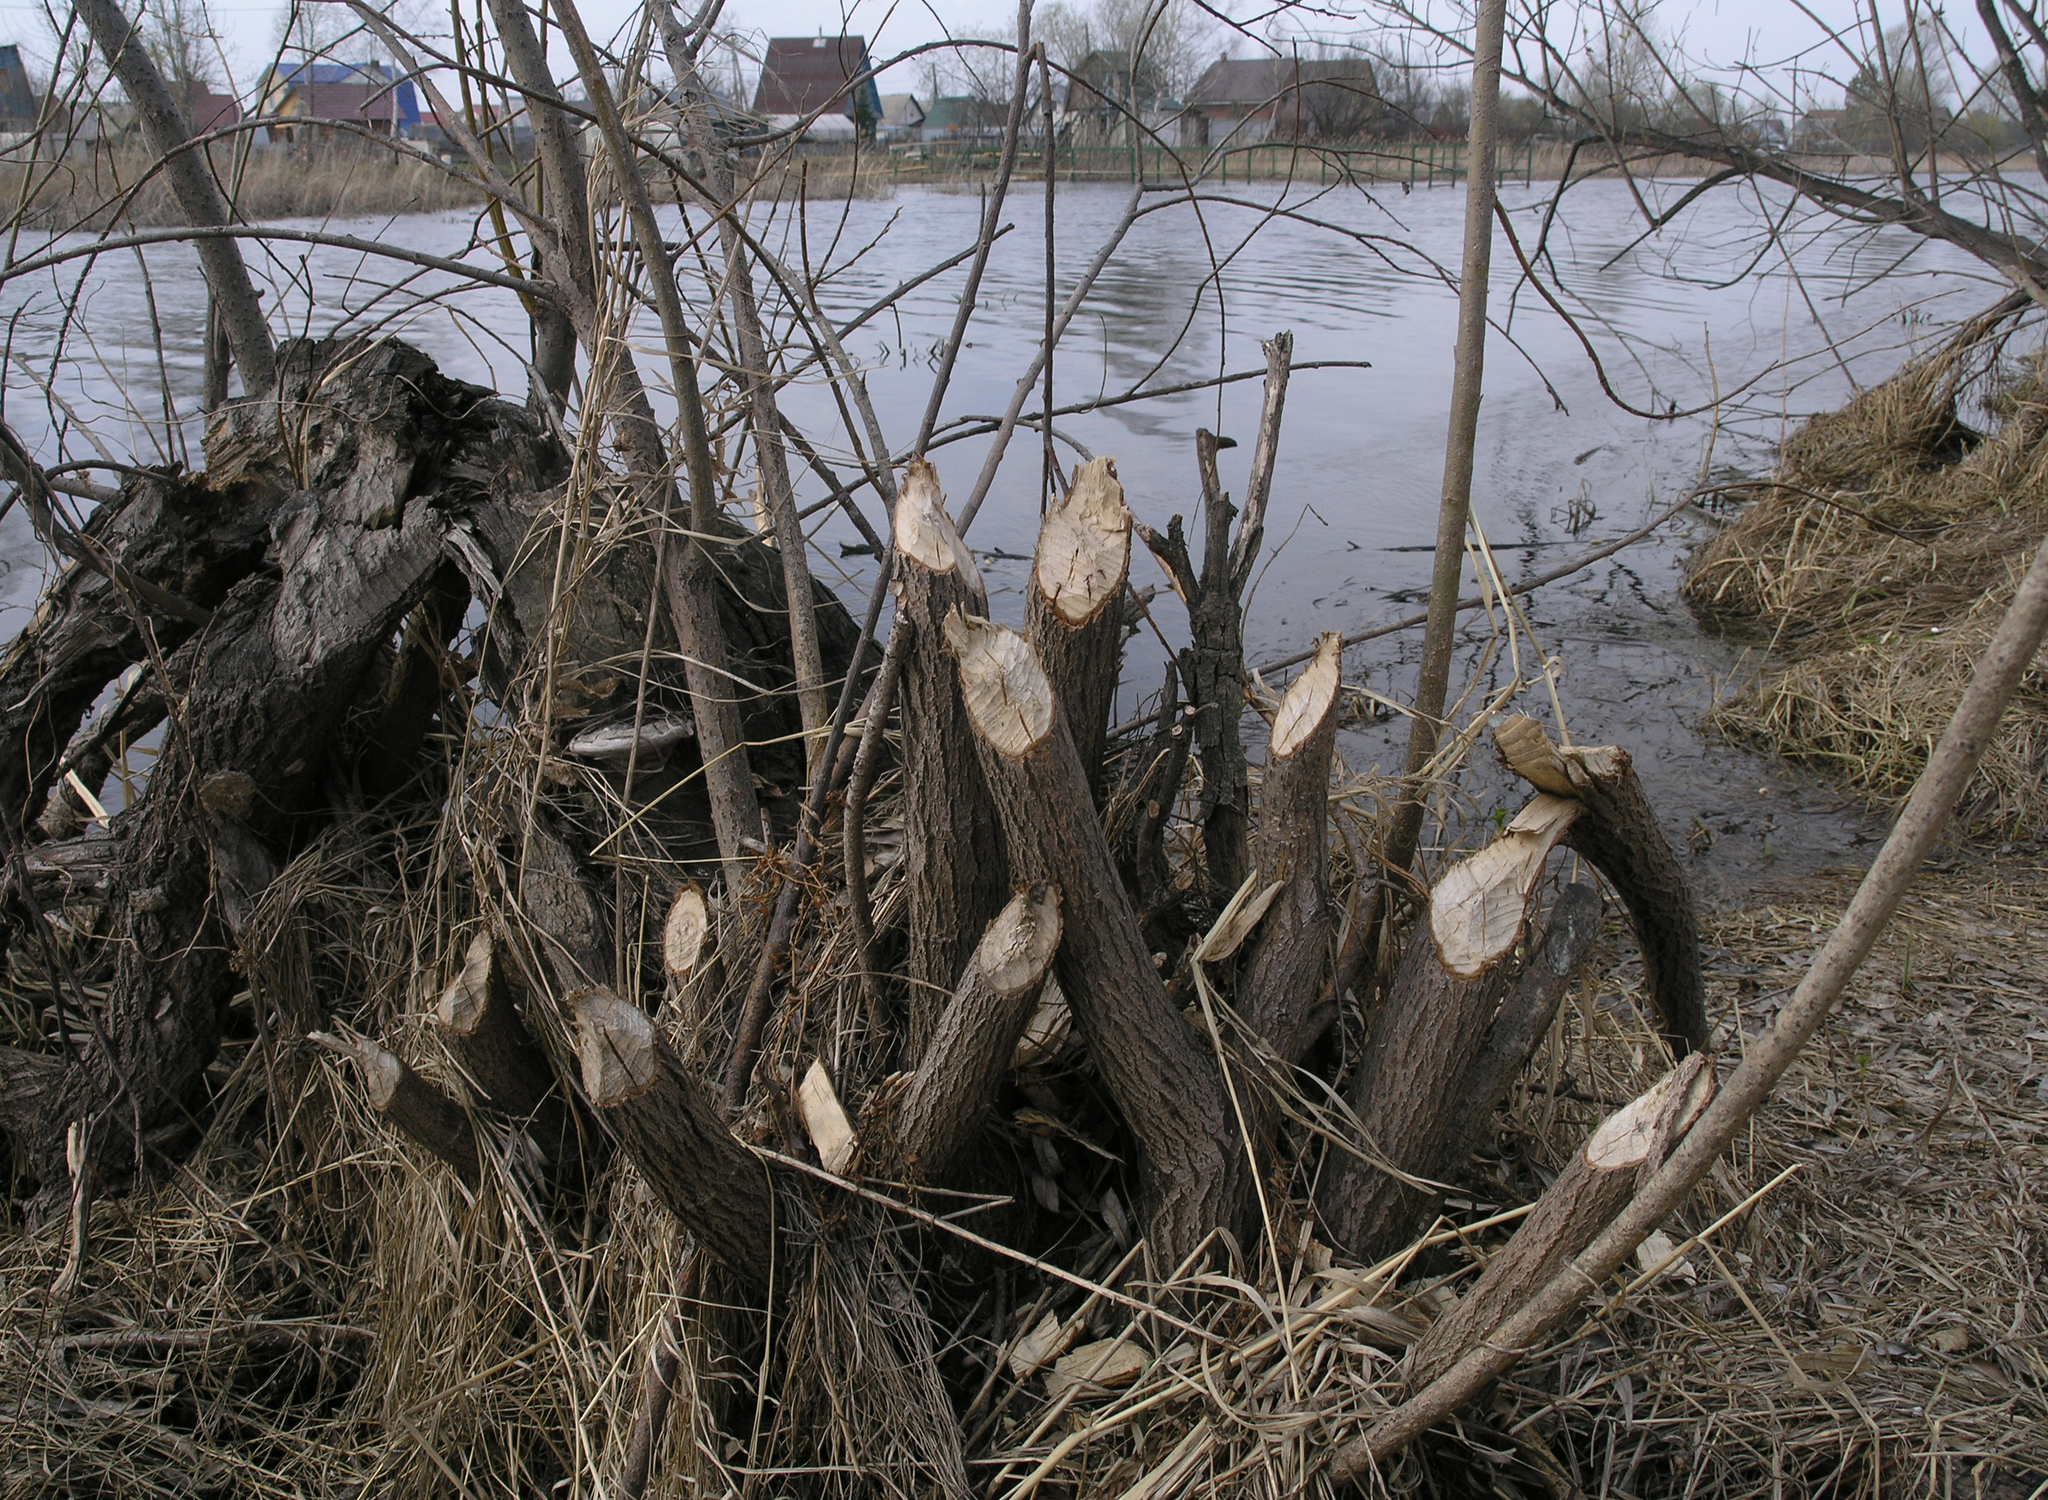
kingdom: Animalia
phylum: Chordata
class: Mammalia
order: Rodentia
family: Castoridae
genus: Castor
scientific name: Castor fiber
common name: Eurasian beaver
